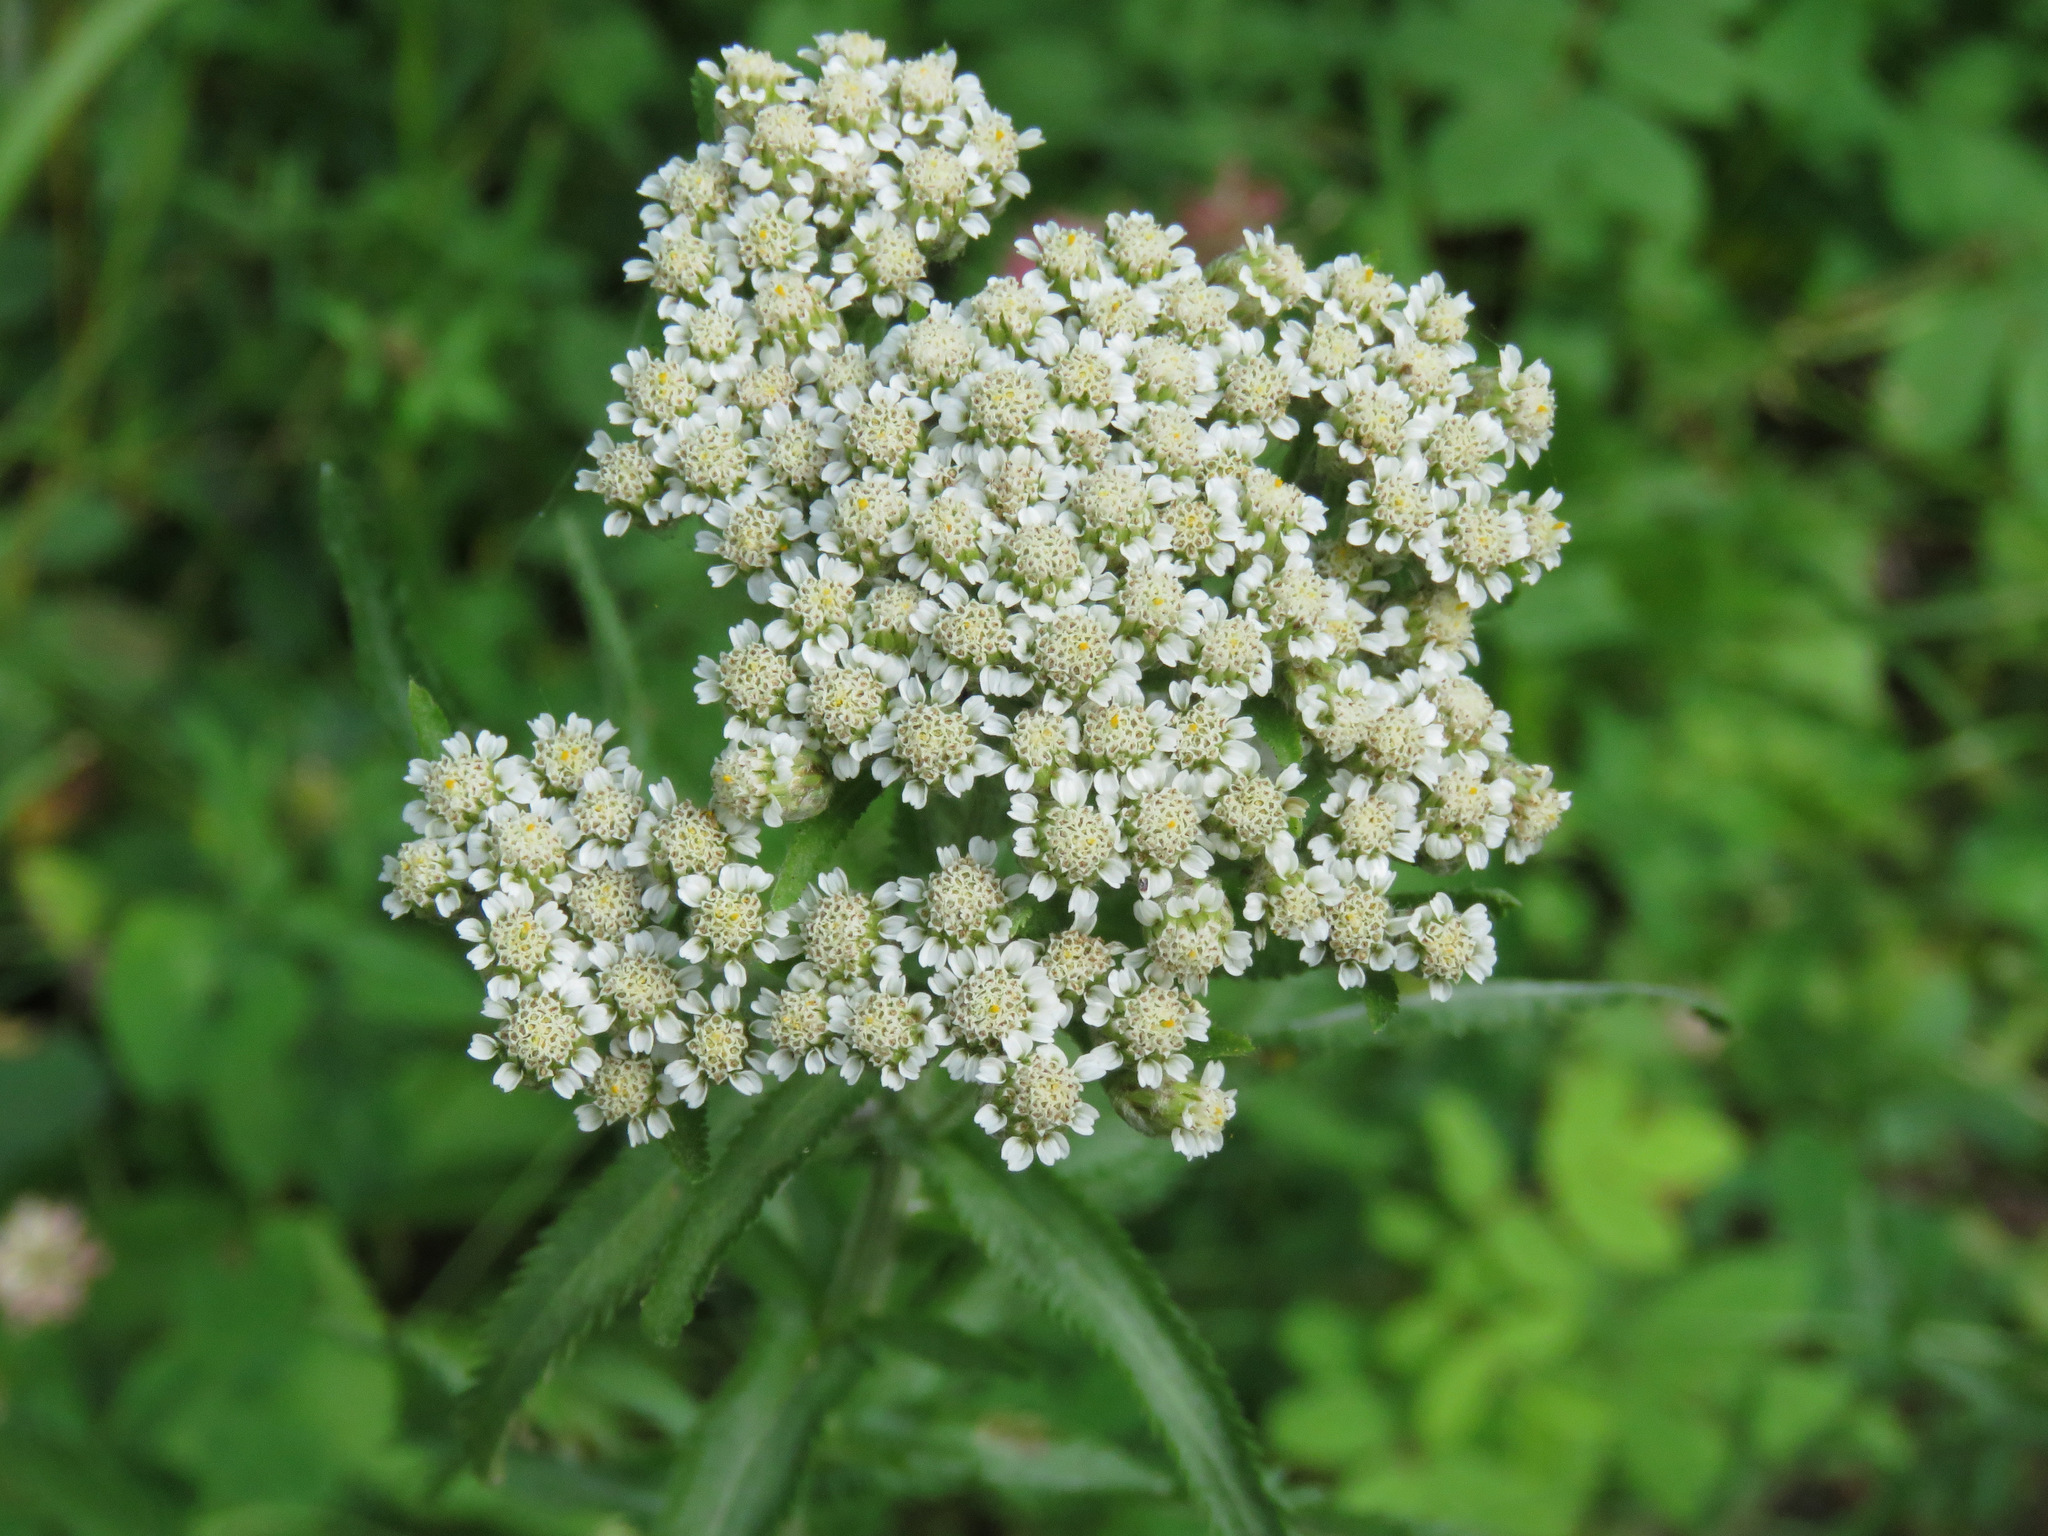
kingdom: Plantae
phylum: Tracheophyta
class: Magnoliopsida
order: Asterales
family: Asteraceae
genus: Achillea
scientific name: Achillea alpina
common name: Siberian yarrow
